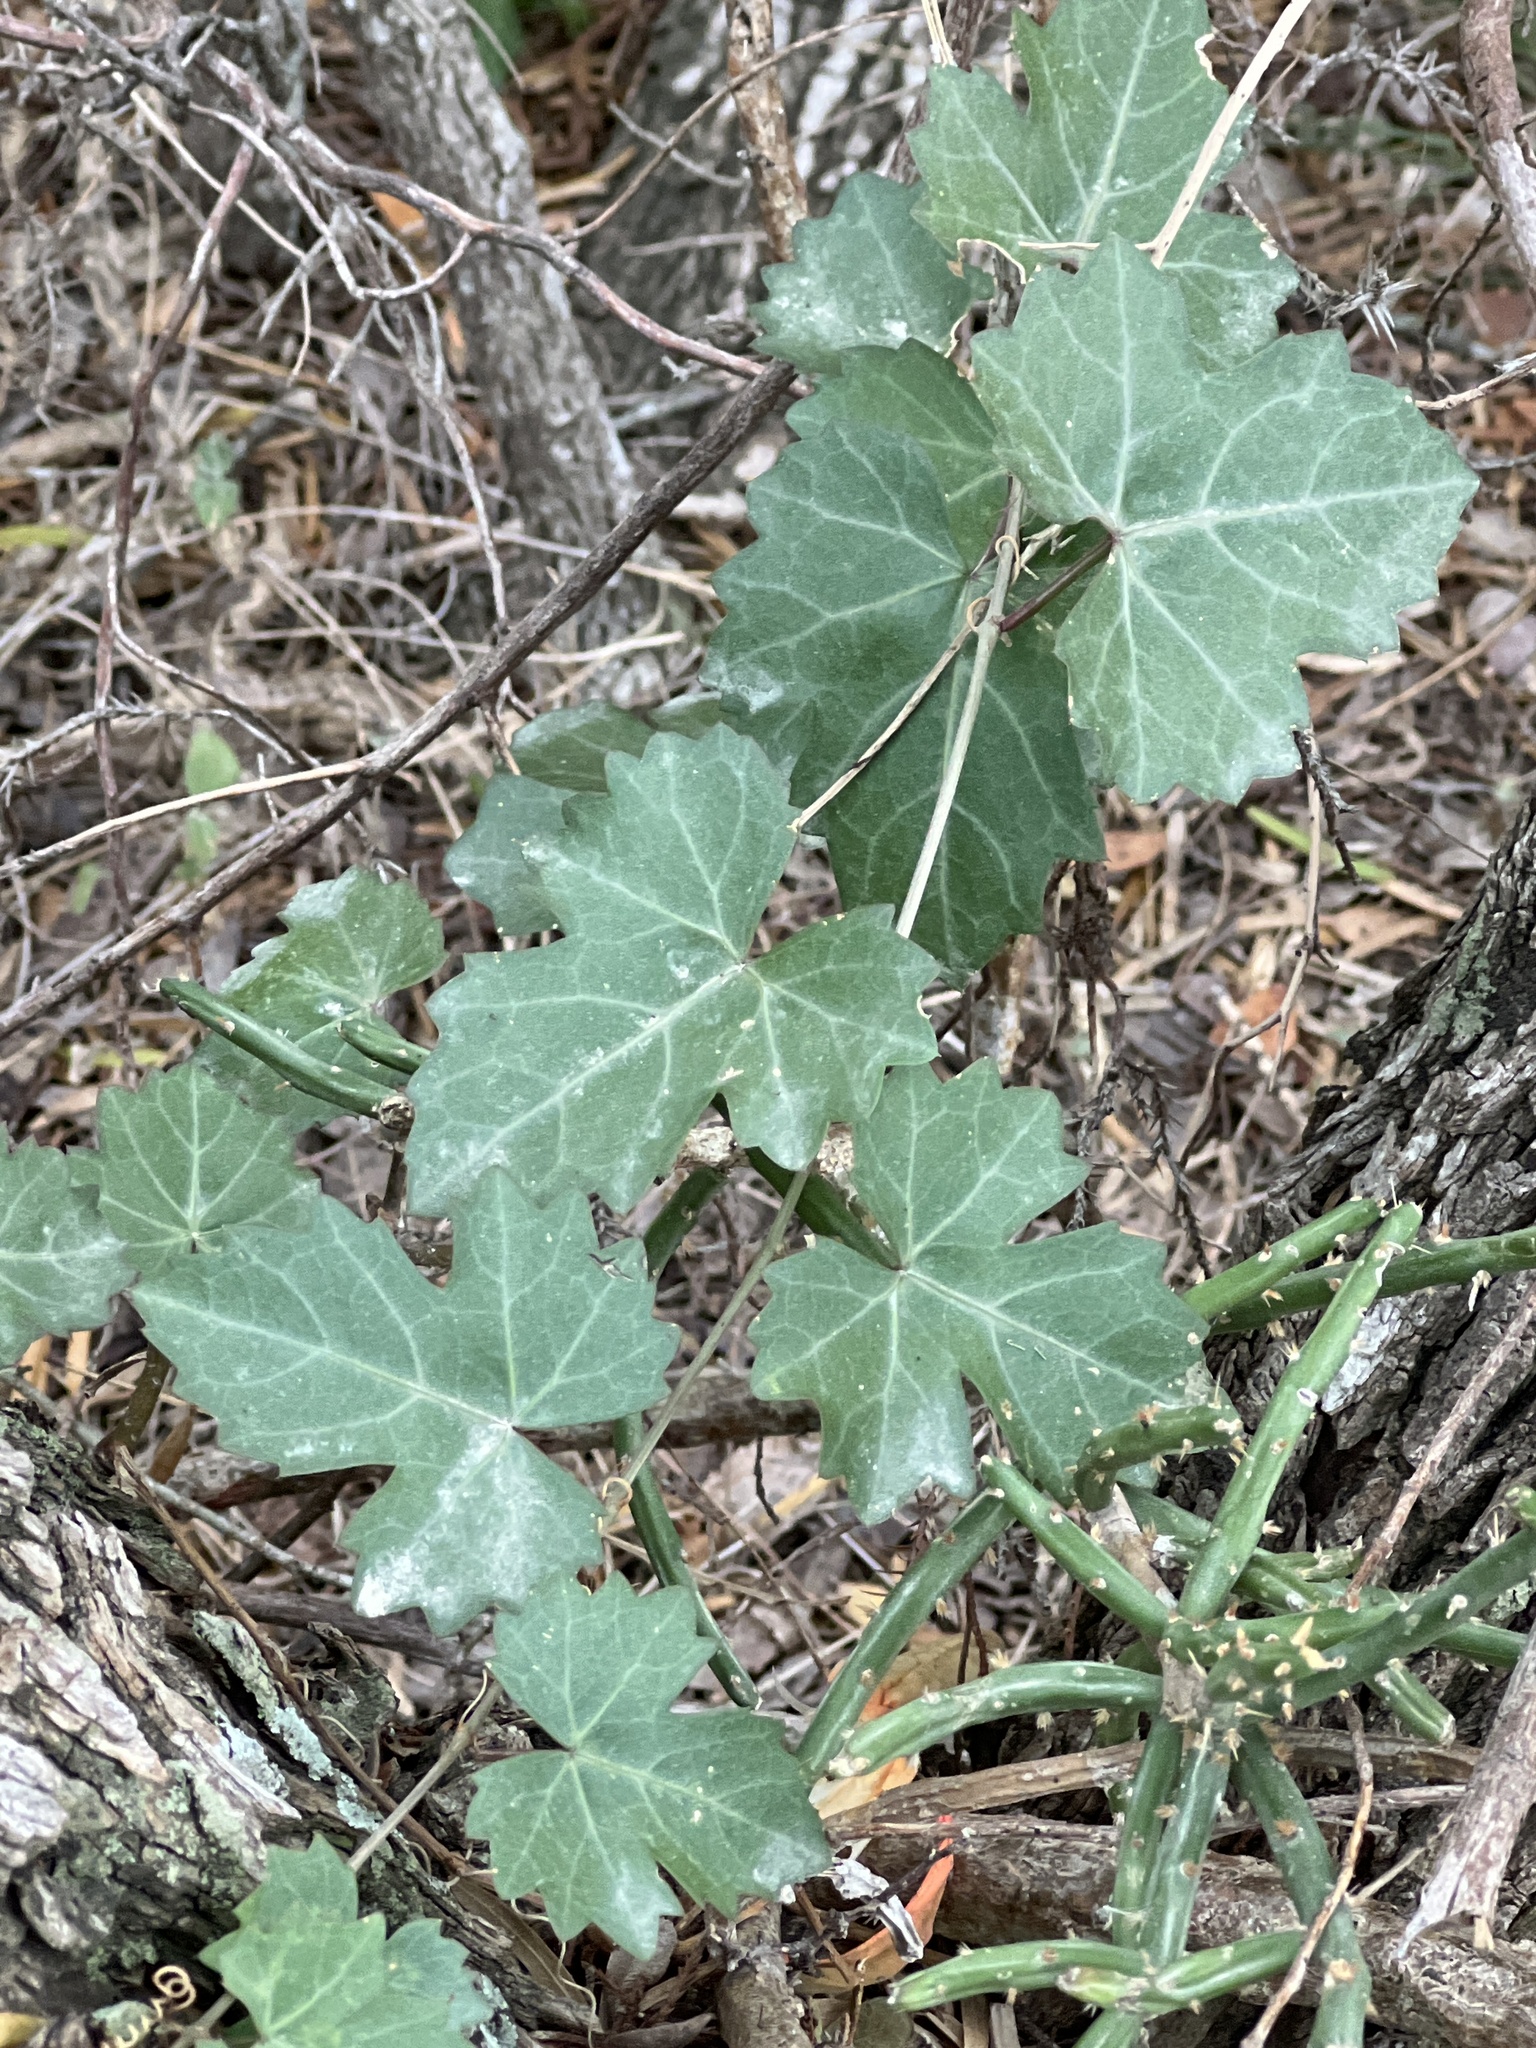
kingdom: Plantae
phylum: Tracheophyta
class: Magnoliopsida
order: Vitales
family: Vitaceae
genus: Cissus
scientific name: Cissus trifoliata
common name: Vine-sorrel
